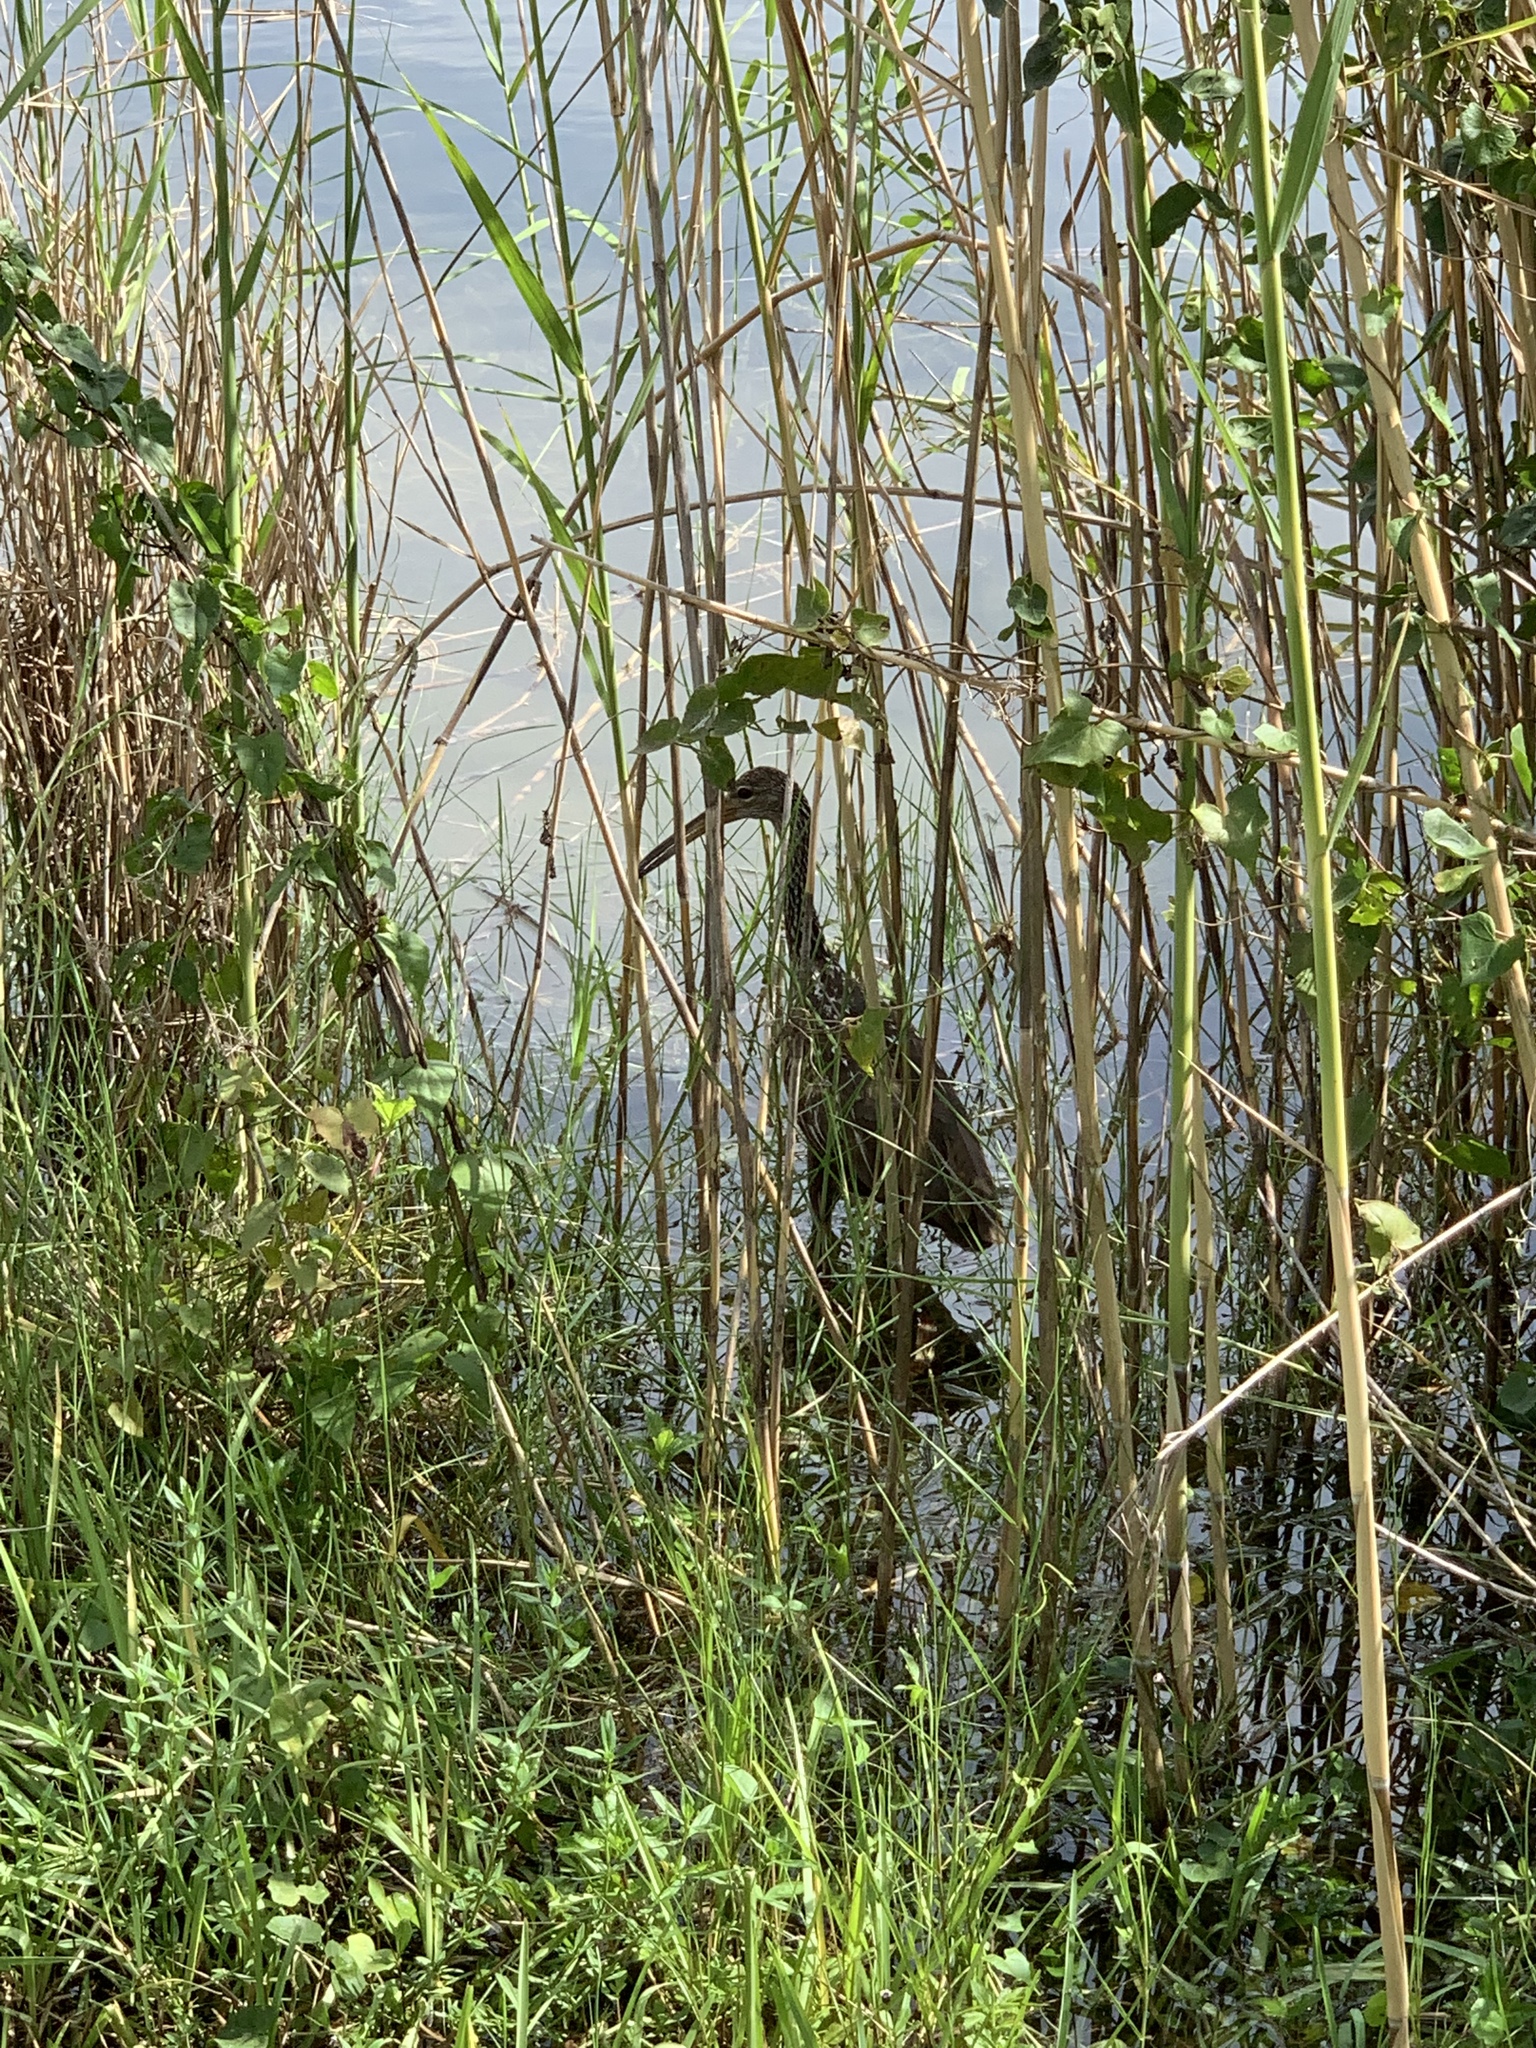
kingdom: Animalia
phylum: Chordata
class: Aves
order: Gruiformes
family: Aramidae
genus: Aramus
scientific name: Aramus guarauna
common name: Limpkin
